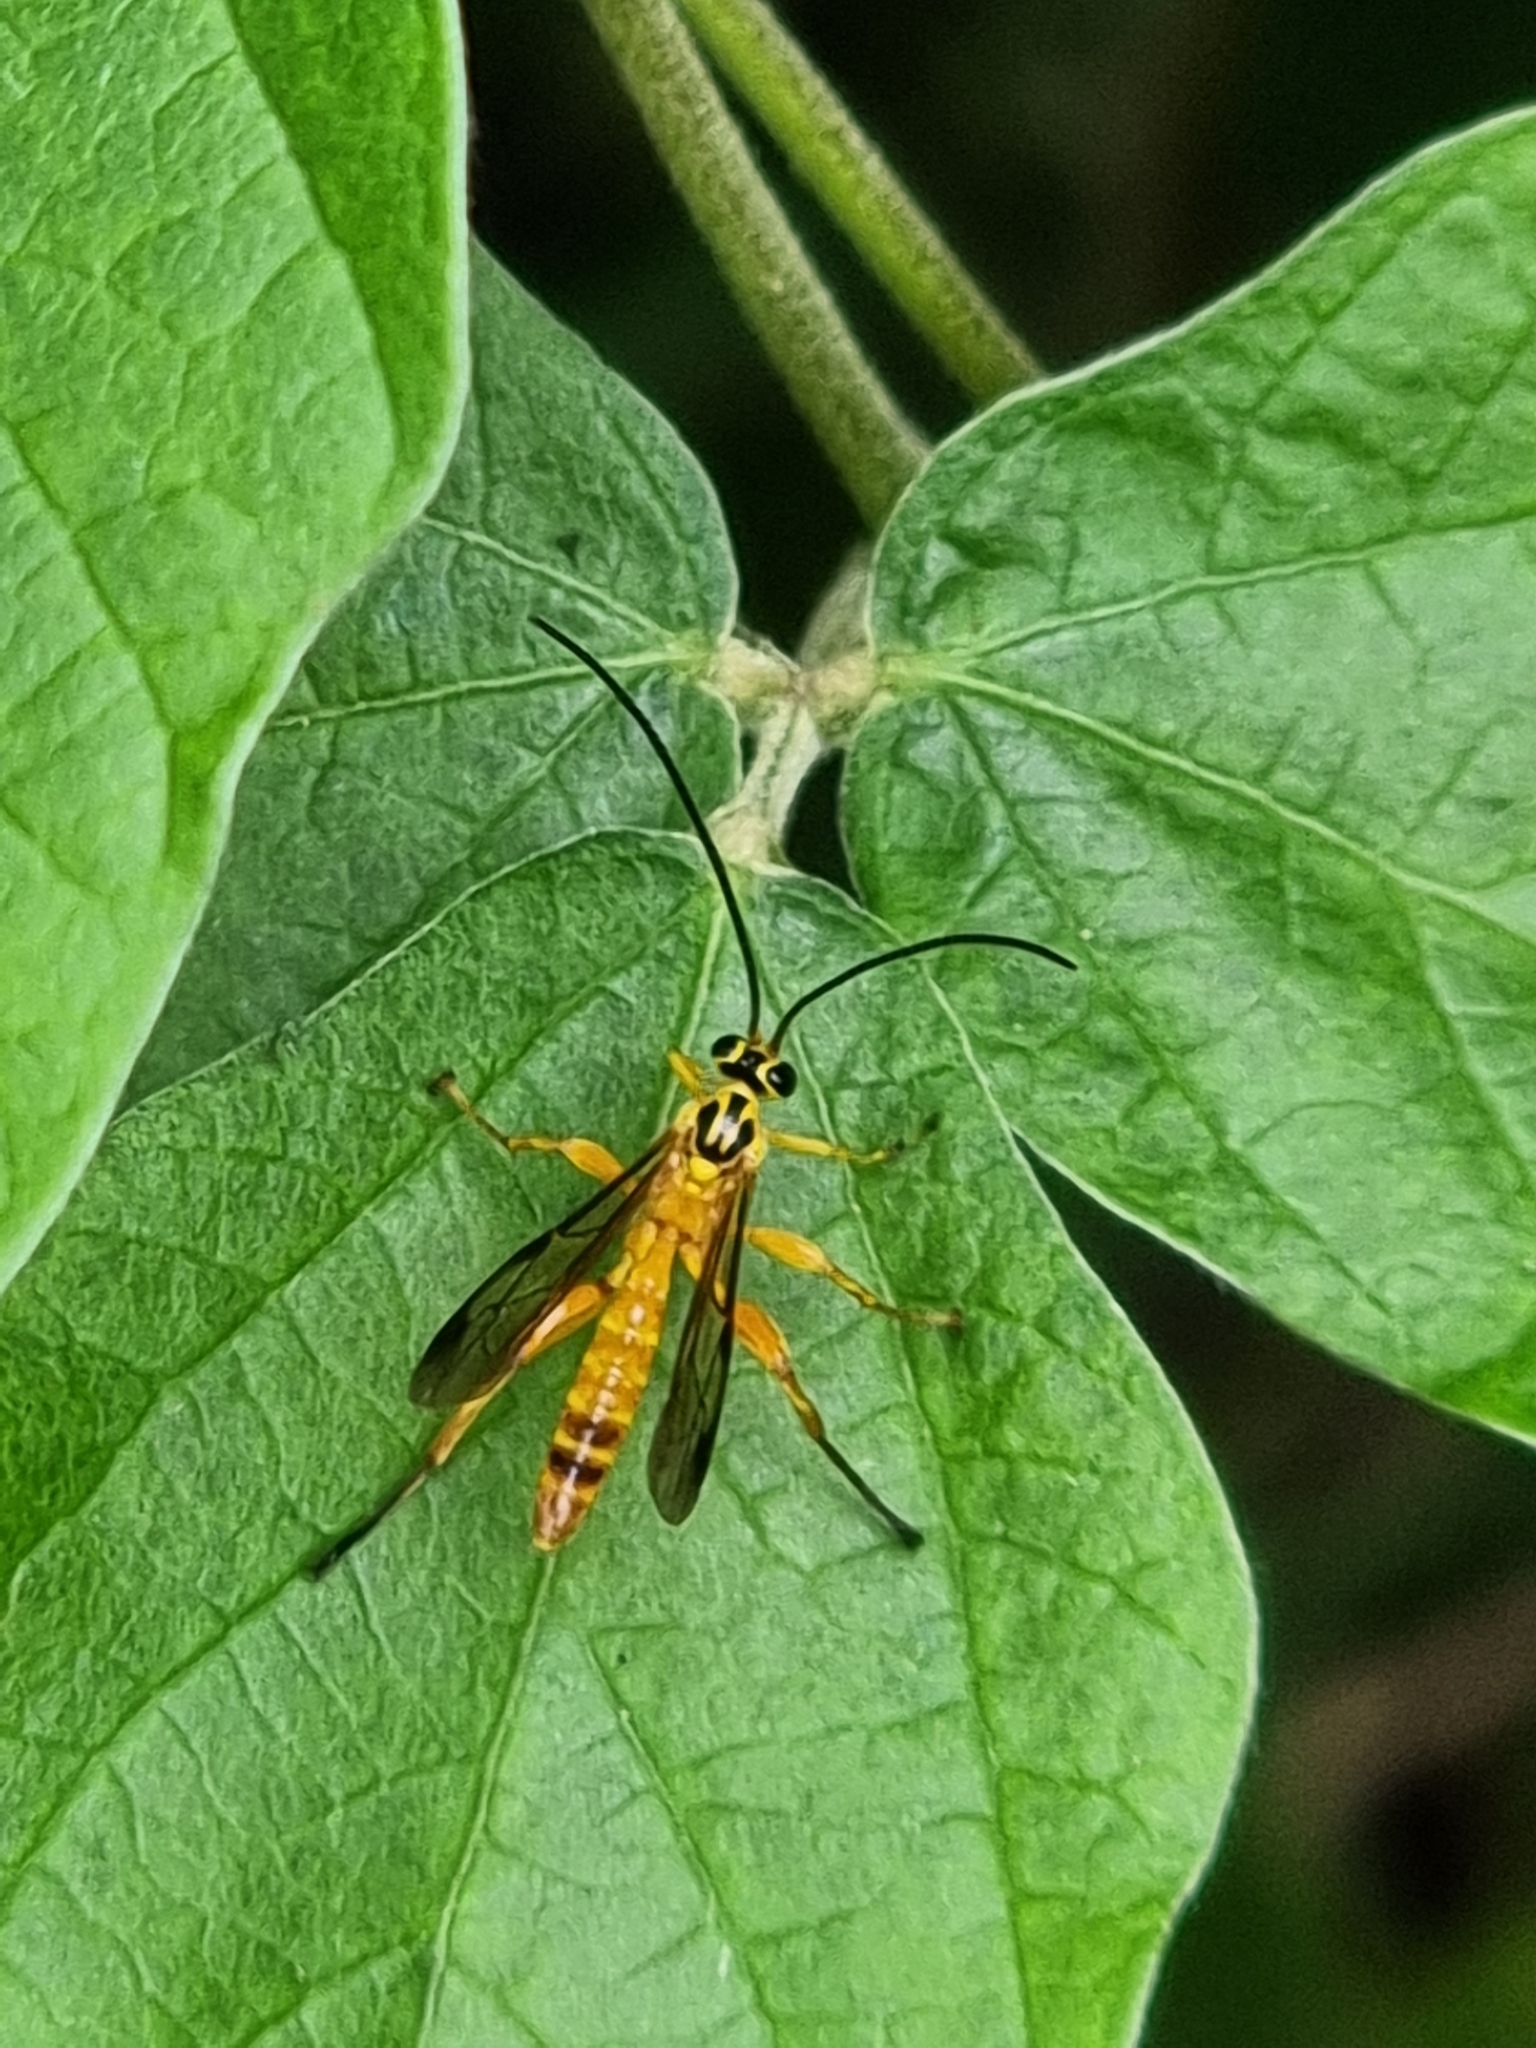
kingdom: Animalia
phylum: Arthropoda
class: Insecta
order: Hymenoptera
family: Ichneumonidae
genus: Echthromorpha
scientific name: Echthromorpha agrestoria
